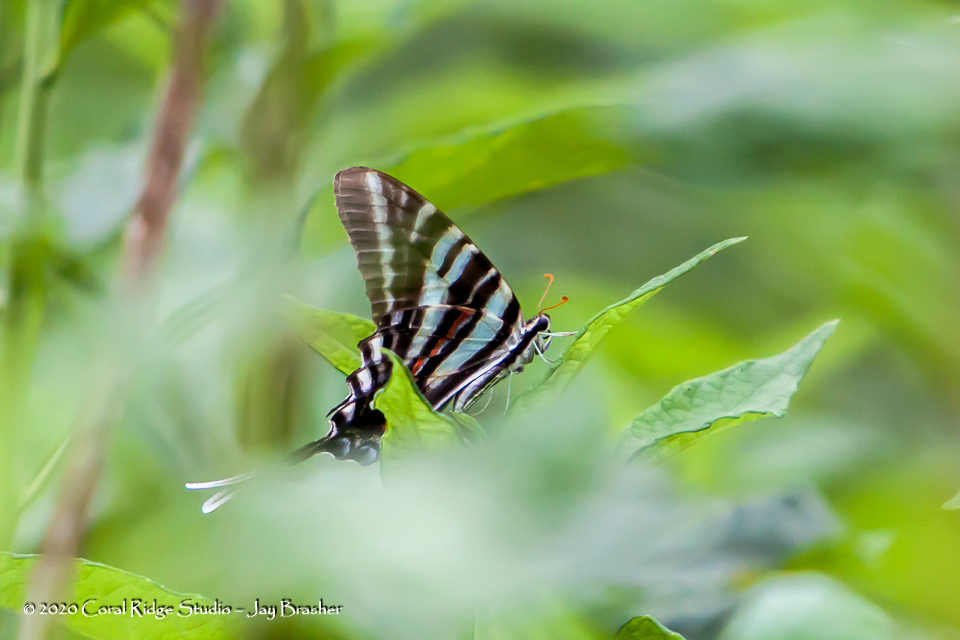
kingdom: Animalia
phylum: Arthropoda
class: Insecta
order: Lepidoptera
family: Papilionidae
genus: Protographium
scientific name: Protographium marcellus
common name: Zebra swallowtail
